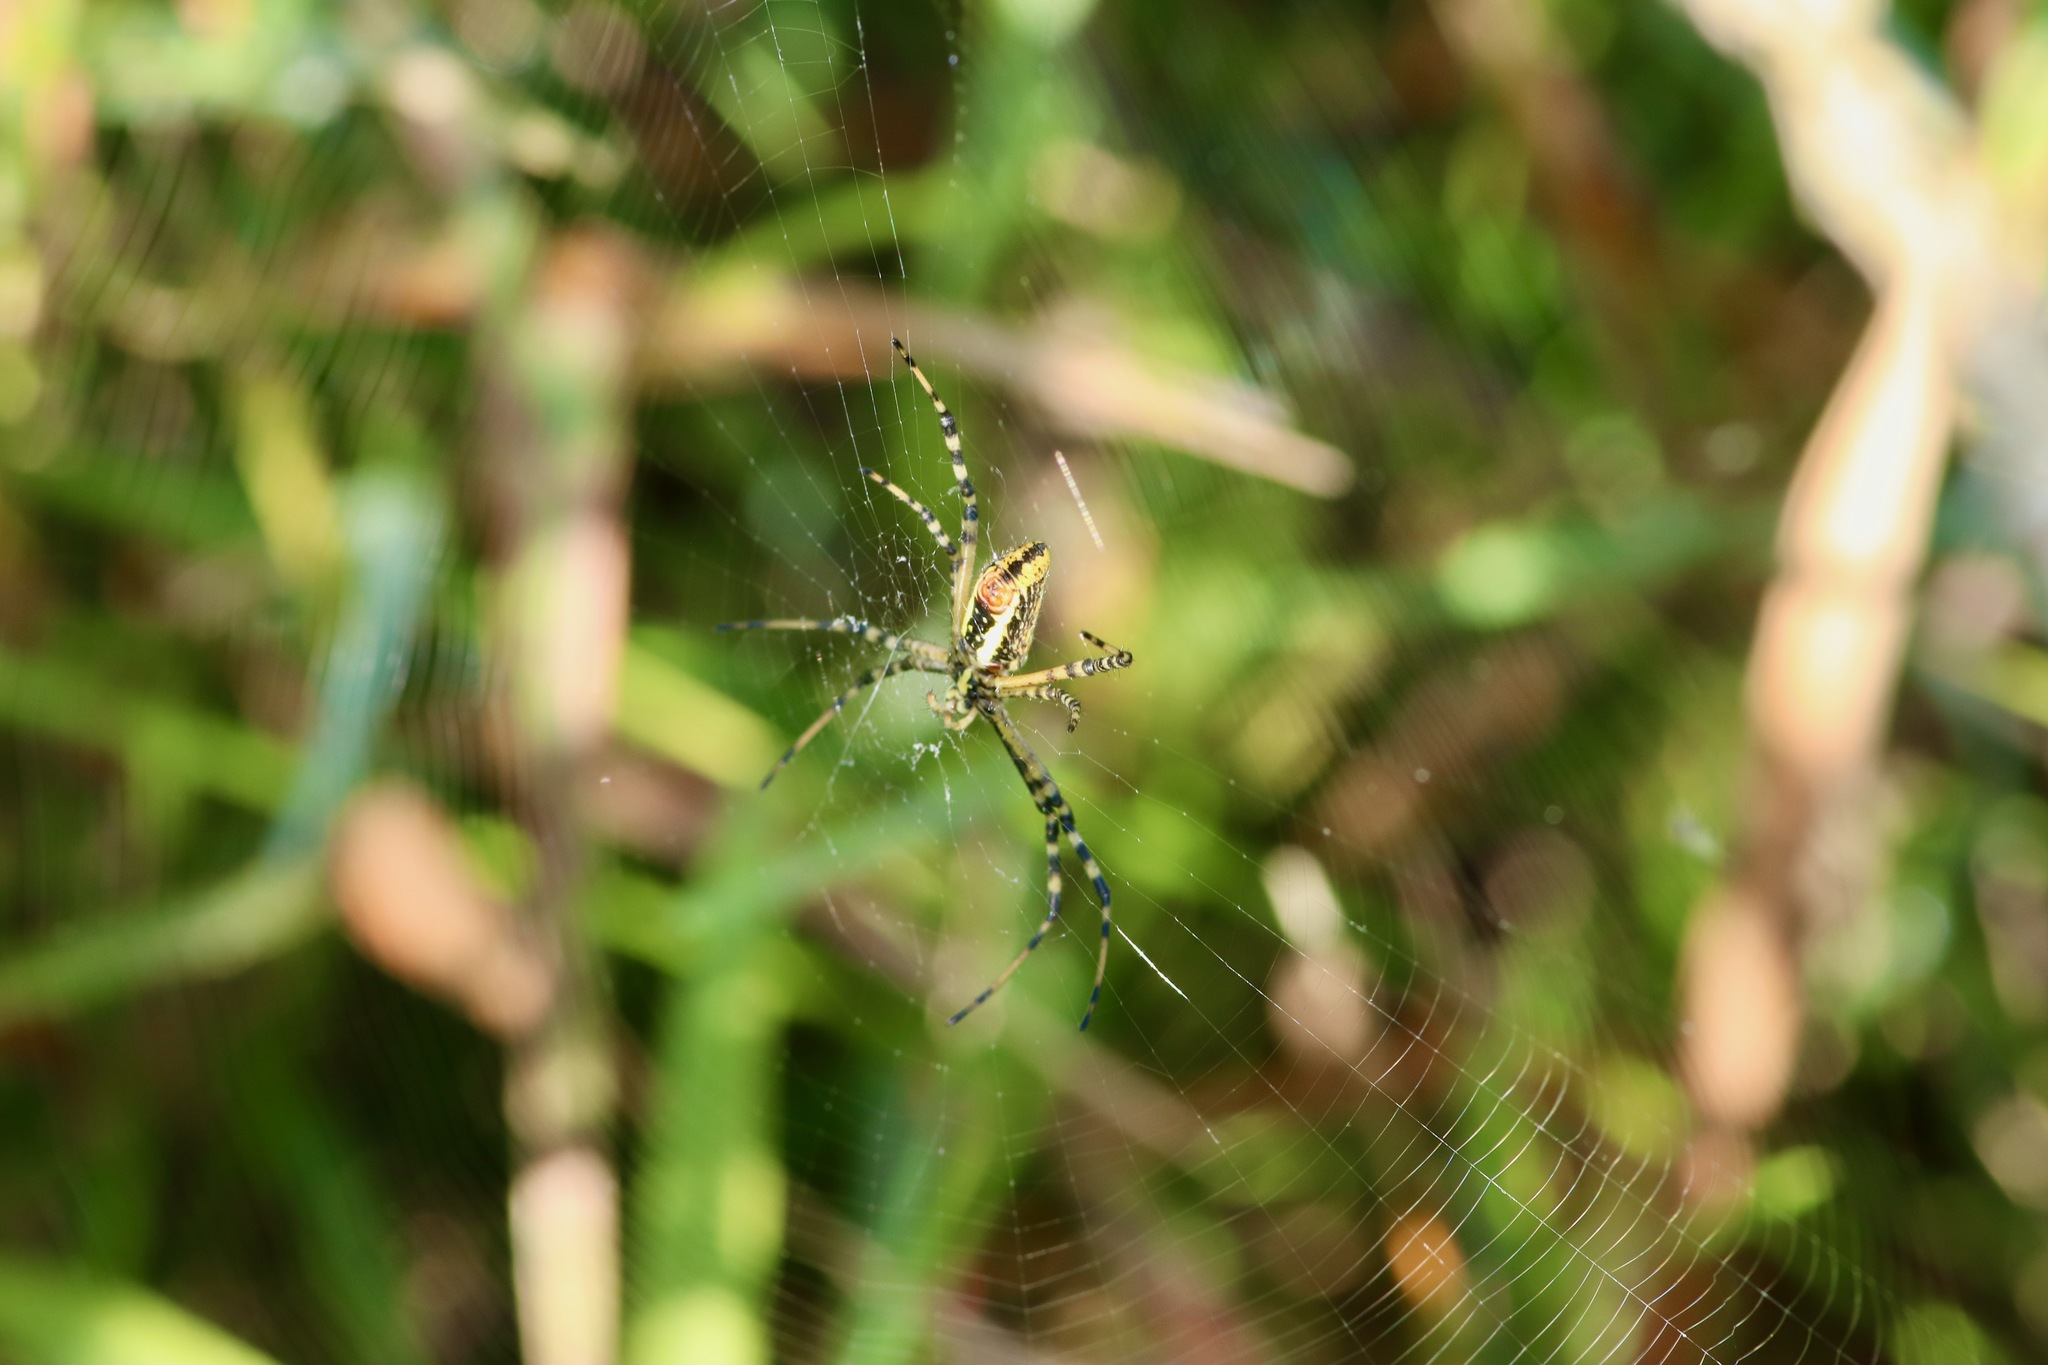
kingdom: Animalia
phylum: Arthropoda
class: Arachnida
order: Araneae
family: Araneidae
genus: Argiope
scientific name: Argiope trifasciata
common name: Banded garden spider
